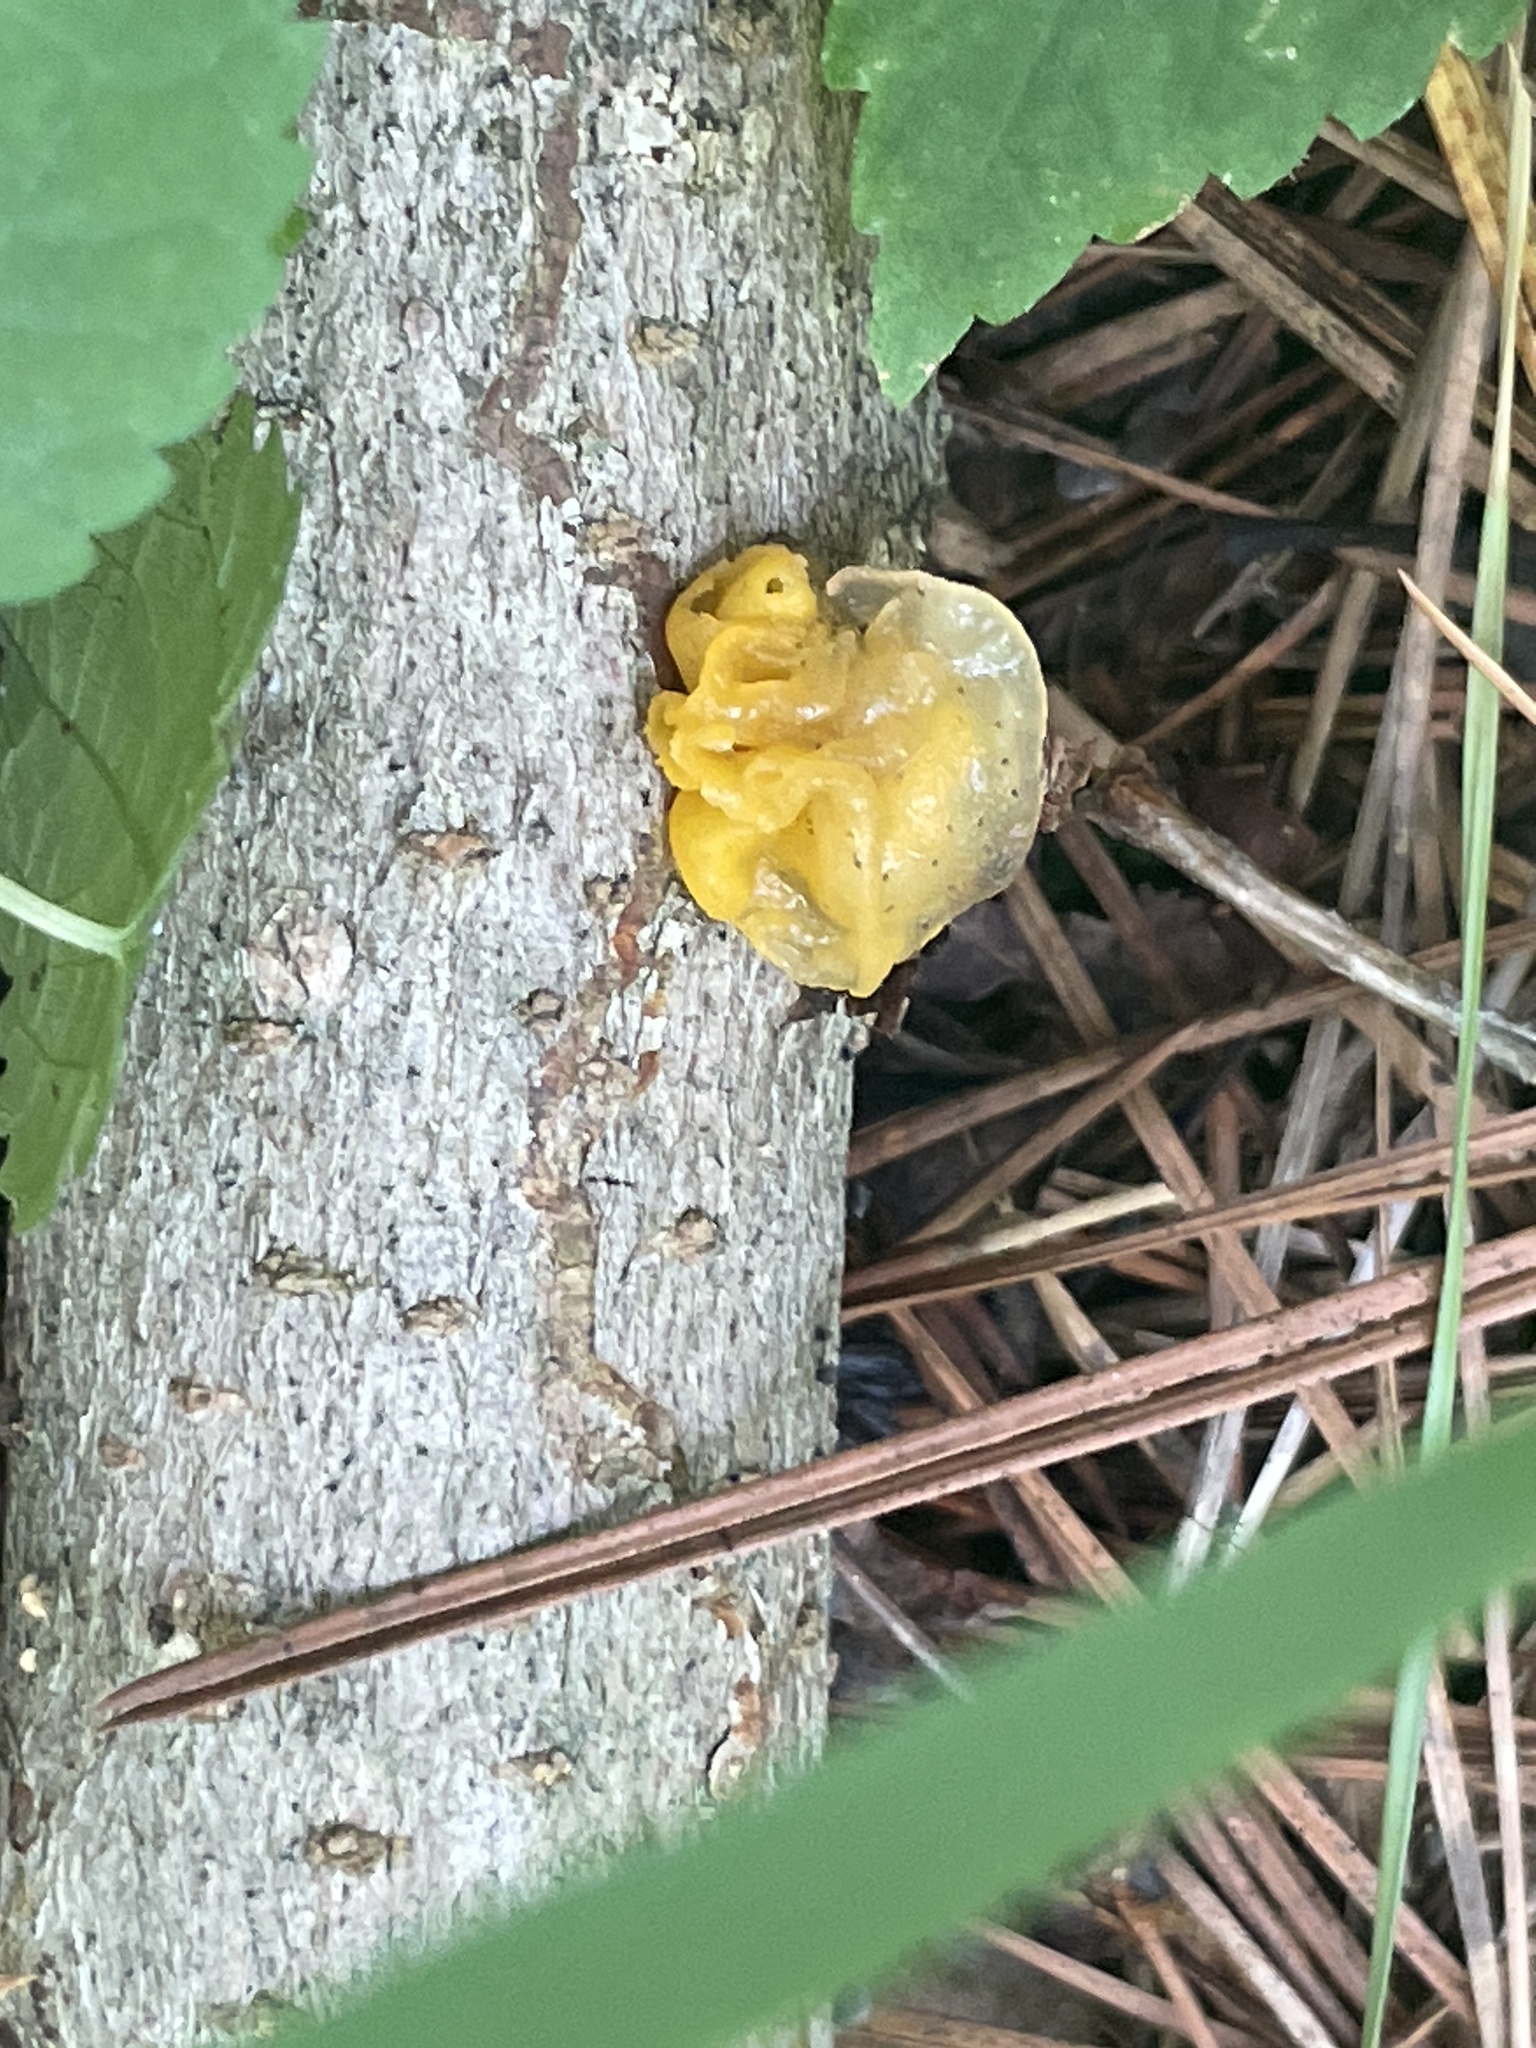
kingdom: Fungi
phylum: Basidiomycota
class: Tremellomycetes
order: Tremellales
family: Tremellaceae
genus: Tremella
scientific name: Tremella mesenterica
